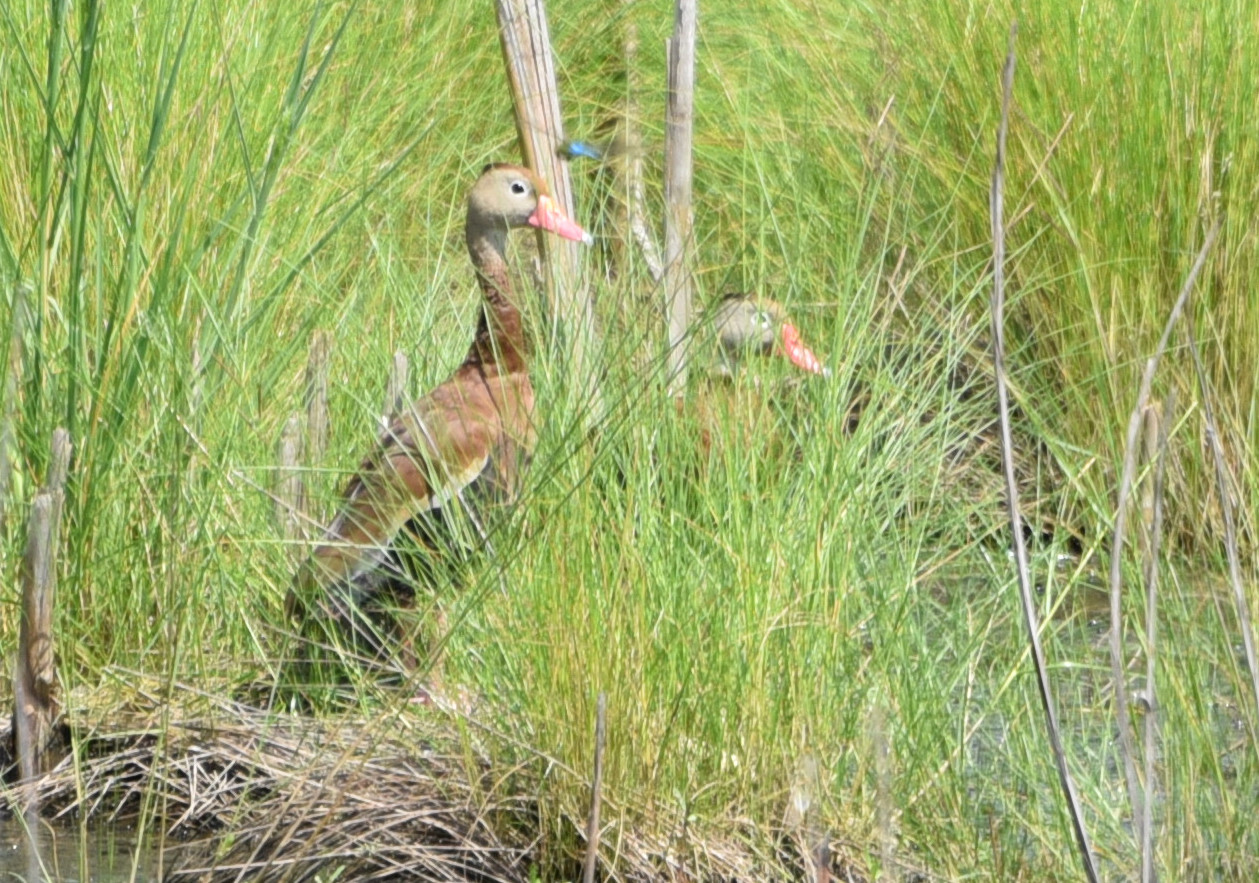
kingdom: Animalia
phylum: Chordata
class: Aves
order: Anseriformes
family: Anatidae
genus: Dendrocygna
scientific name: Dendrocygna autumnalis
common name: Black-bellied whistling duck
